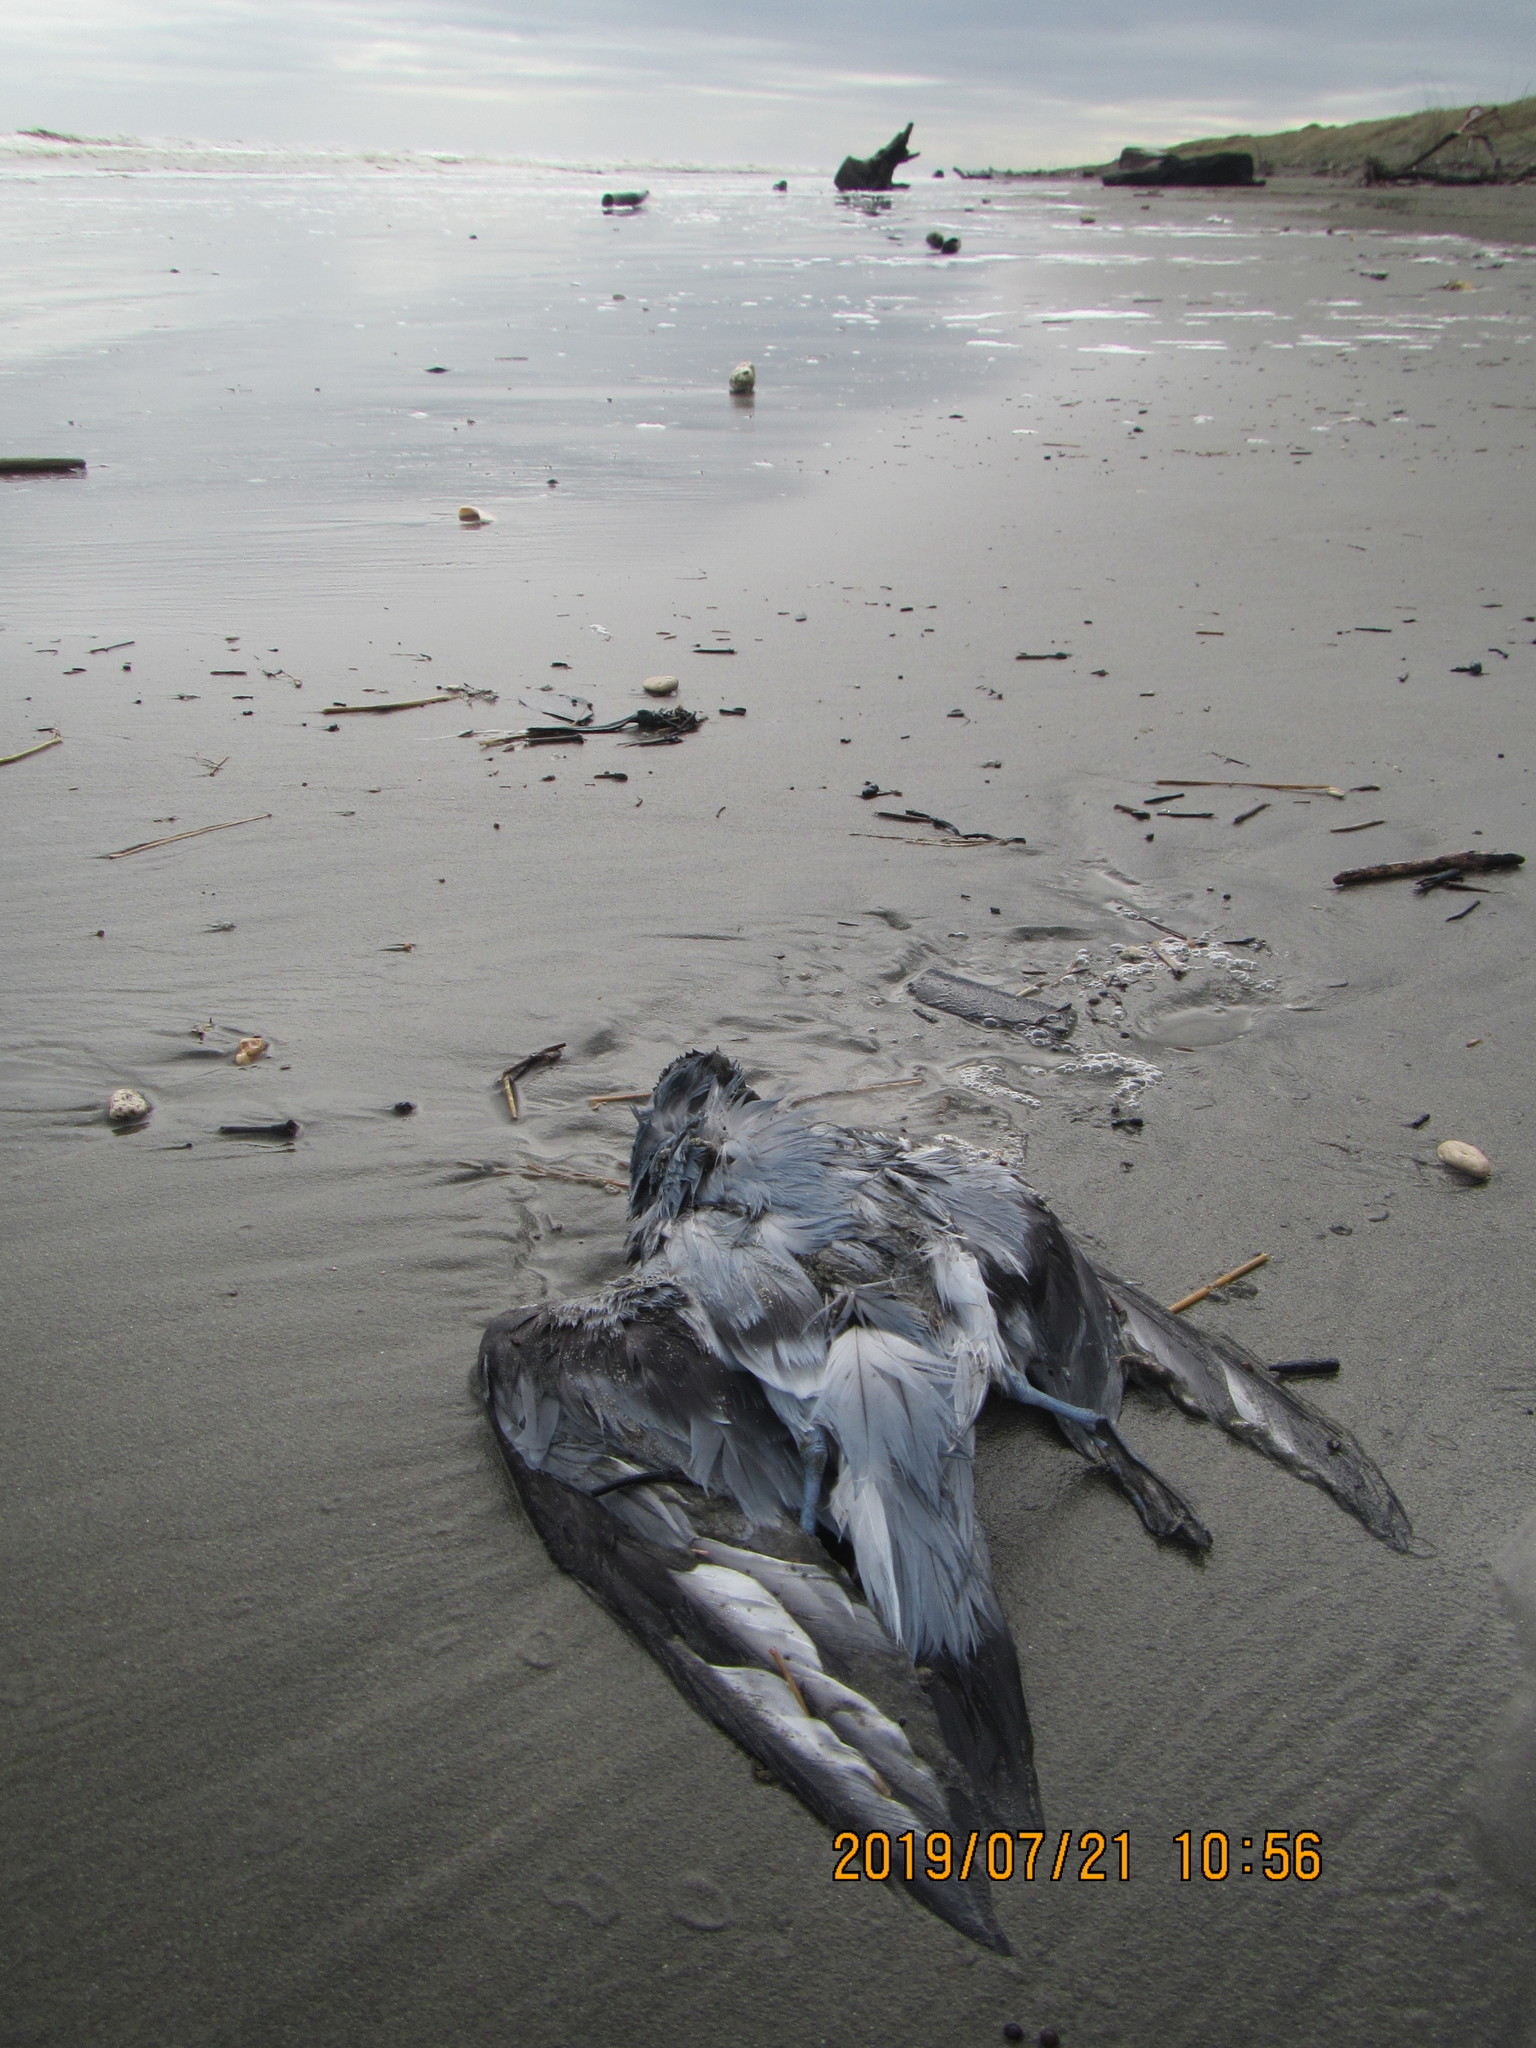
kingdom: Animalia
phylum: Chordata
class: Aves
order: Procellariiformes
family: Procellariidae
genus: Pachyptila
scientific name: Pachyptila turtur
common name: Fairy prion
